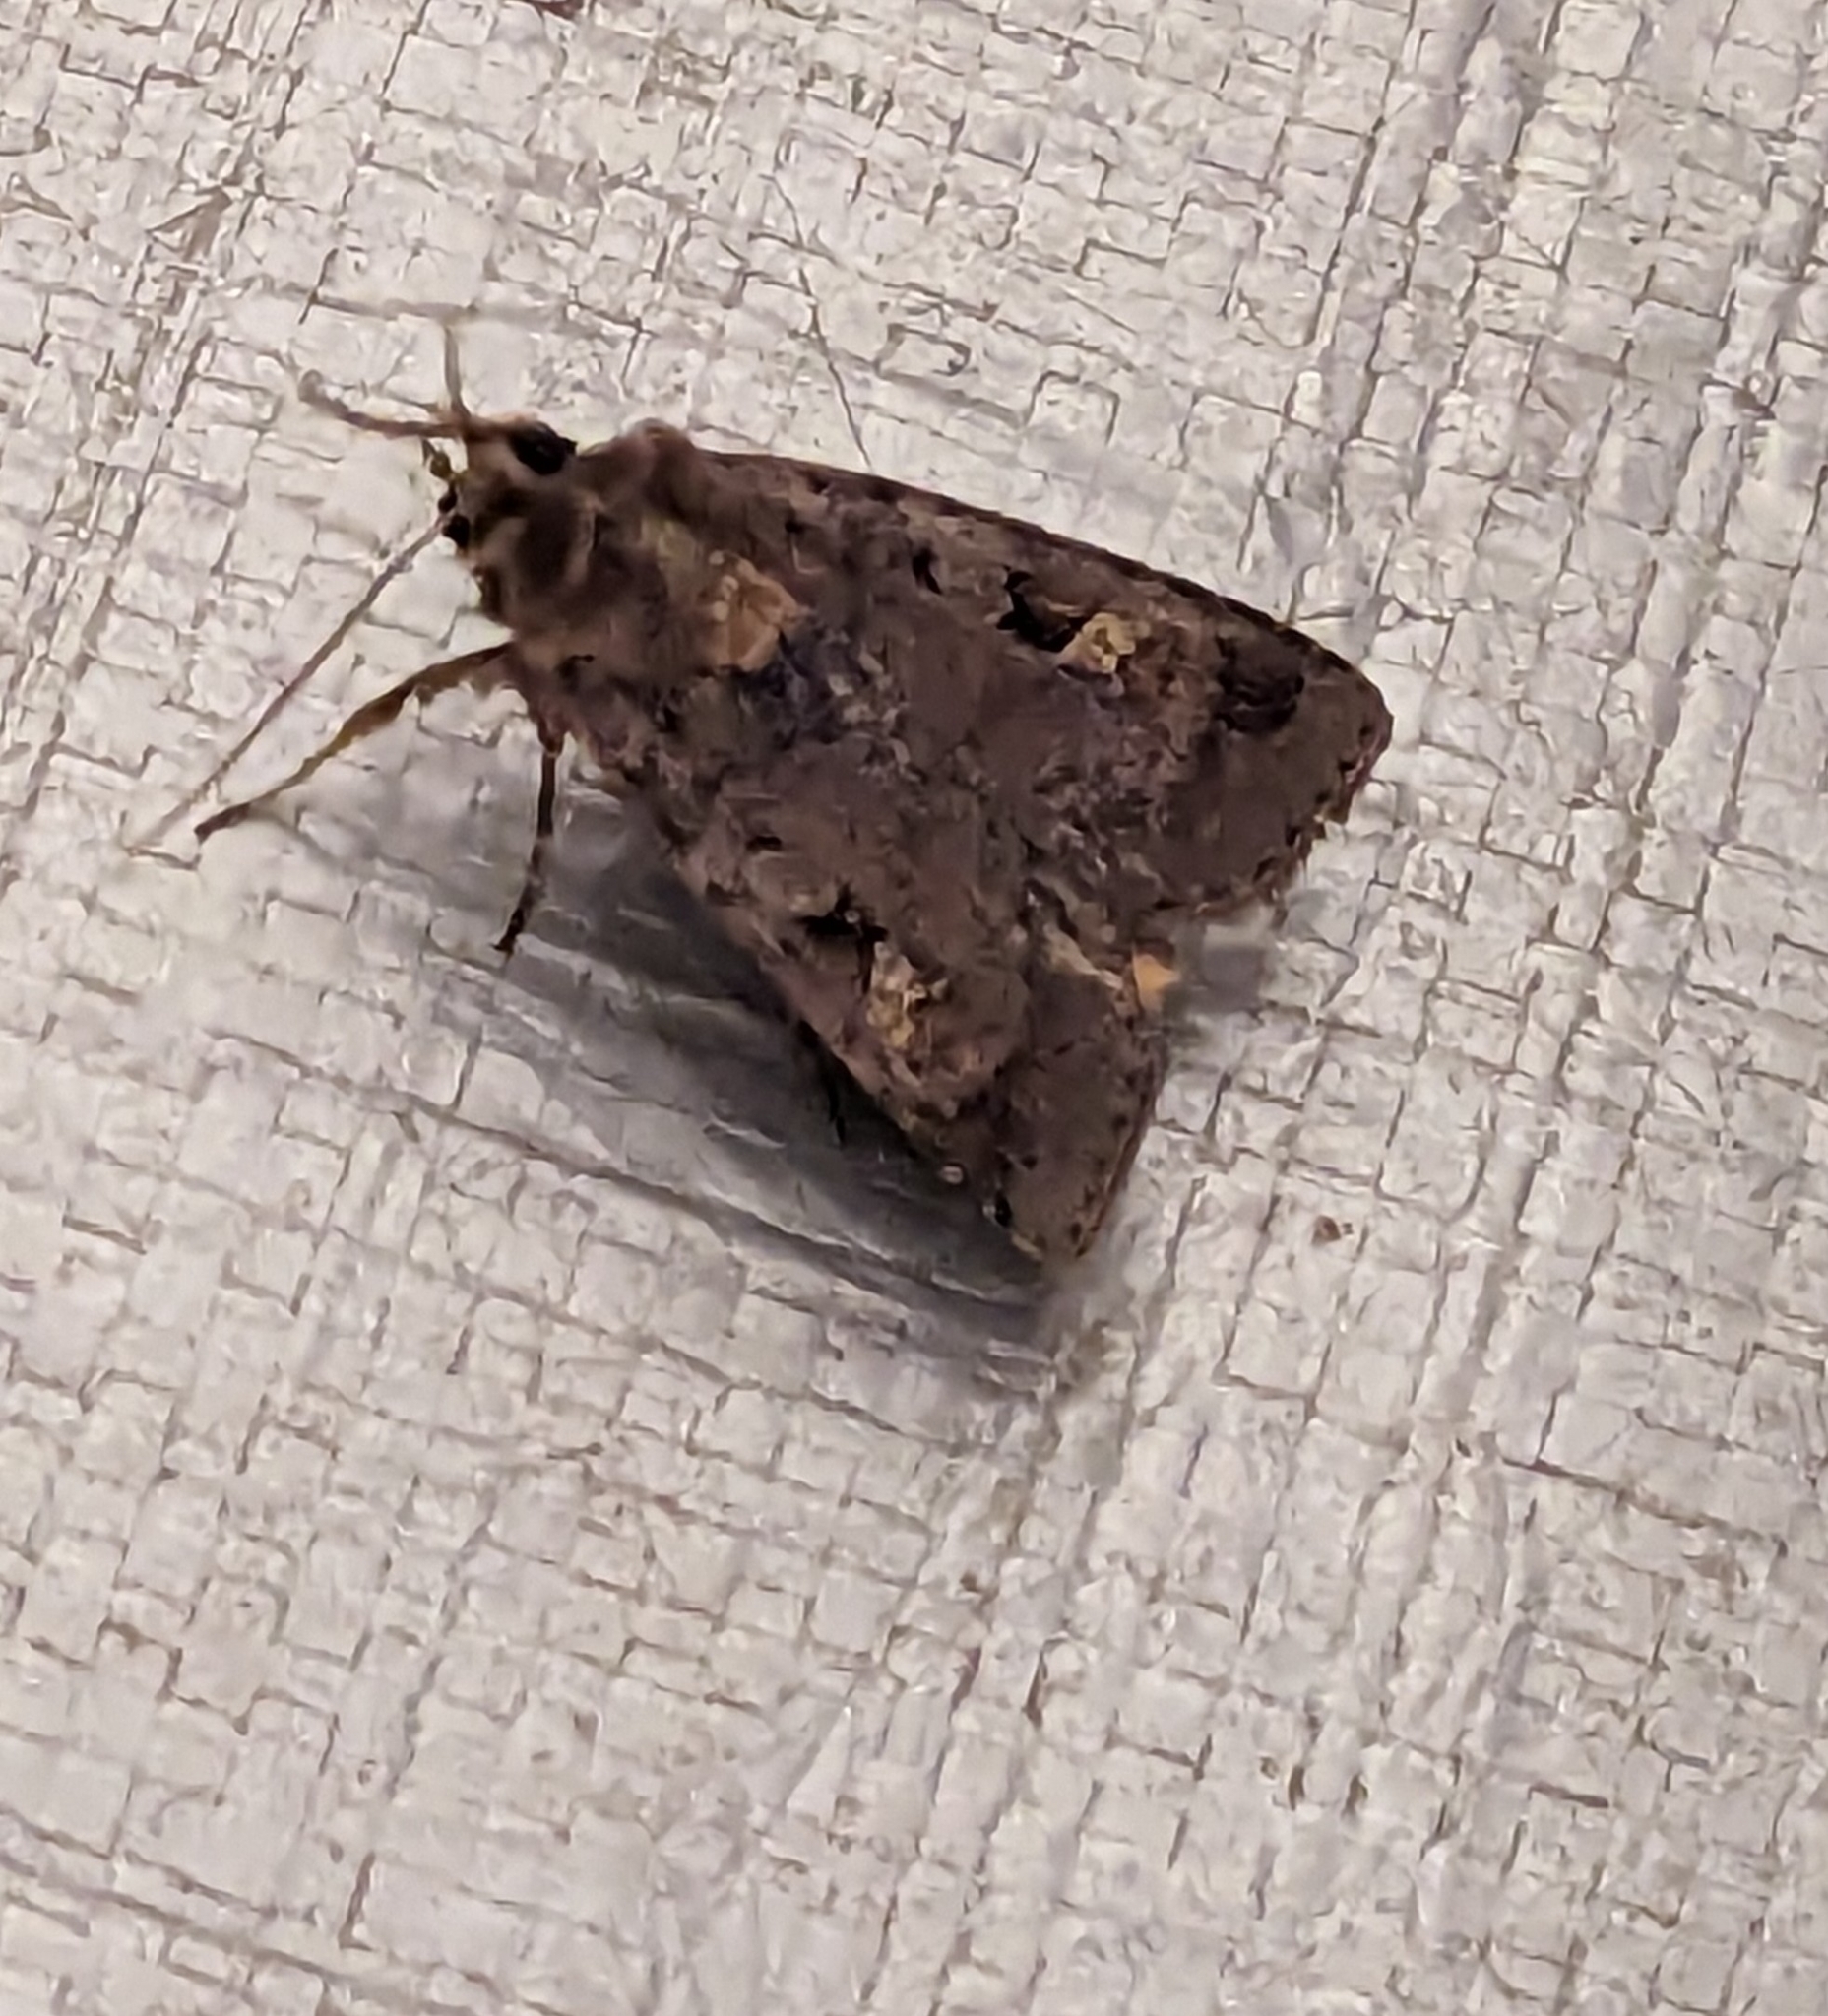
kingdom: Animalia
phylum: Arthropoda
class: Insecta
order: Lepidoptera
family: Noctuidae
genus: Diarsia
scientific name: Diarsia brunnea
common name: Purple clay
